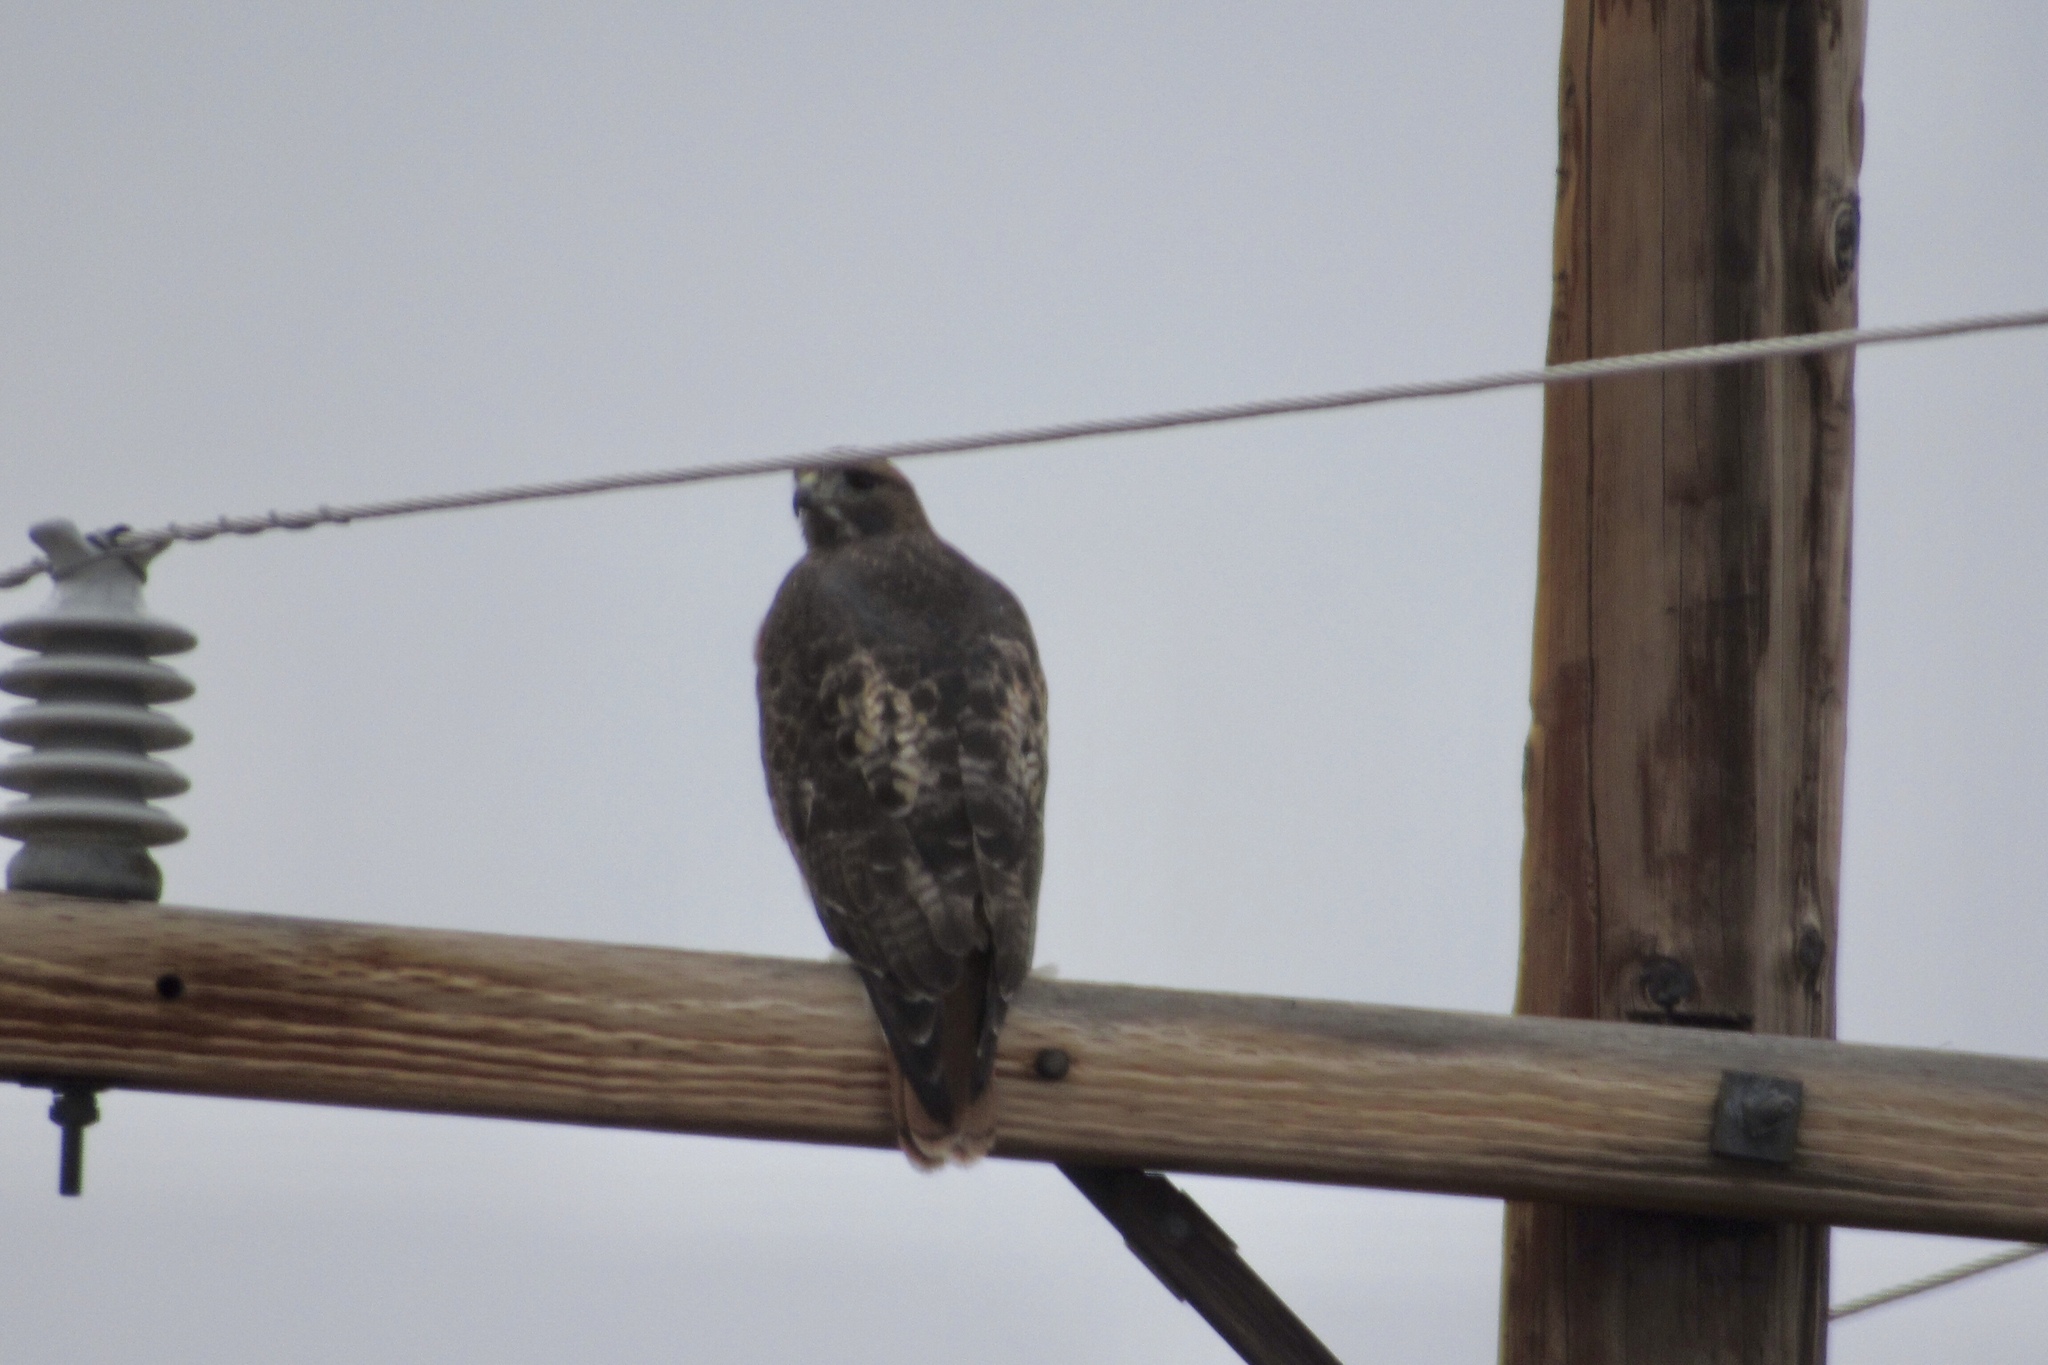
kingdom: Animalia
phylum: Chordata
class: Aves
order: Accipitriformes
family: Accipitridae
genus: Buteo
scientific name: Buteo jamaicensis
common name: Red-tailed hawk
